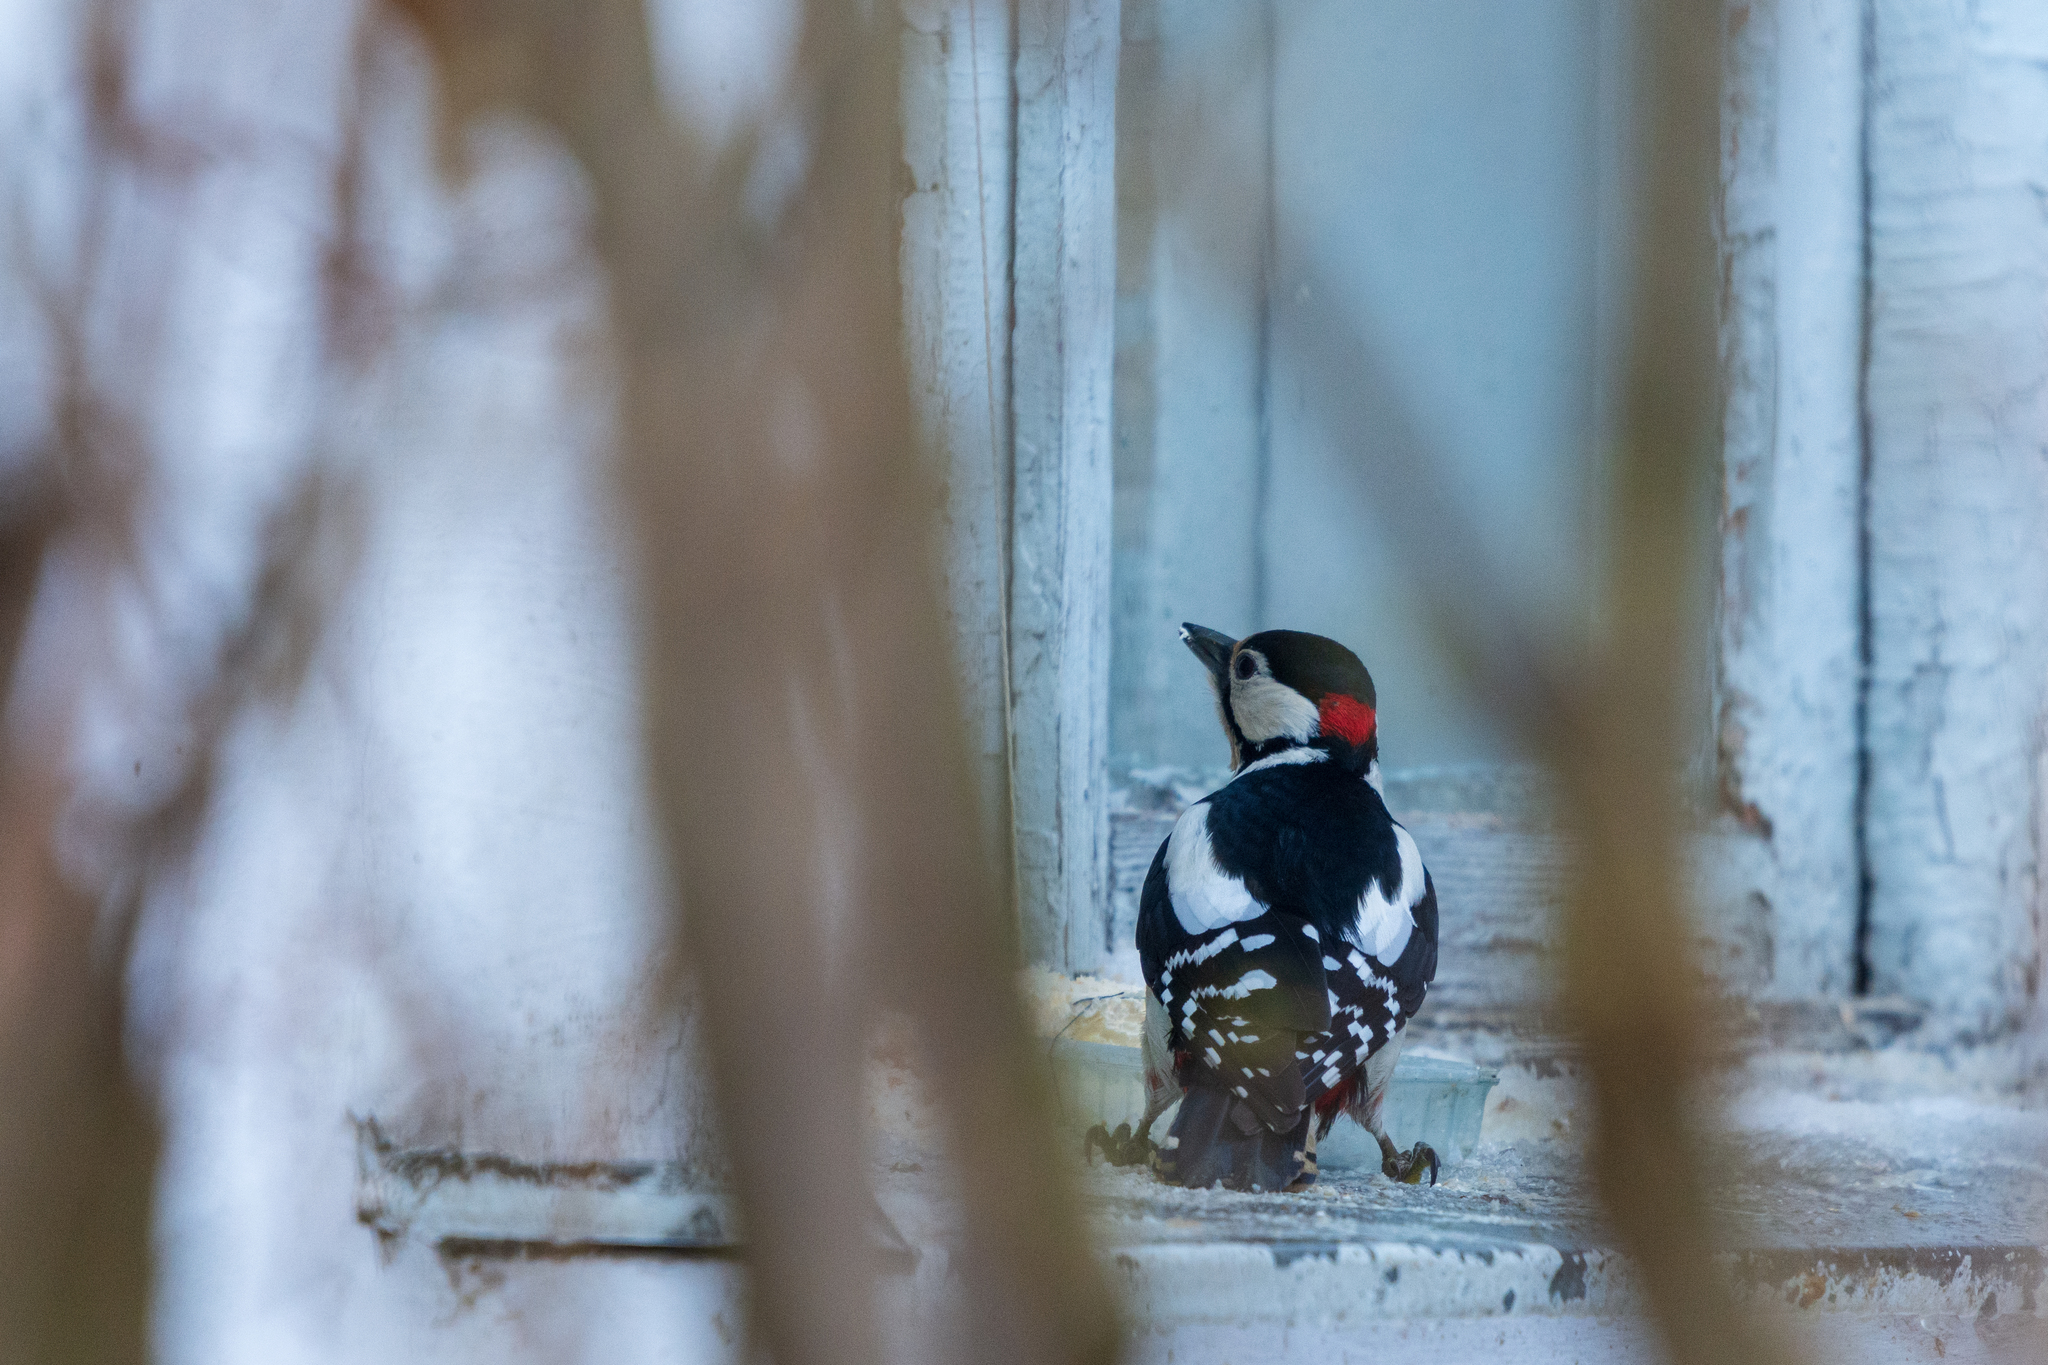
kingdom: Animalia
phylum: Chordata
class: Aves
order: Piciformes
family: Picidae
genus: Dendrocopos
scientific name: Dendrocopos major
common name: Great spotted woodpecker
